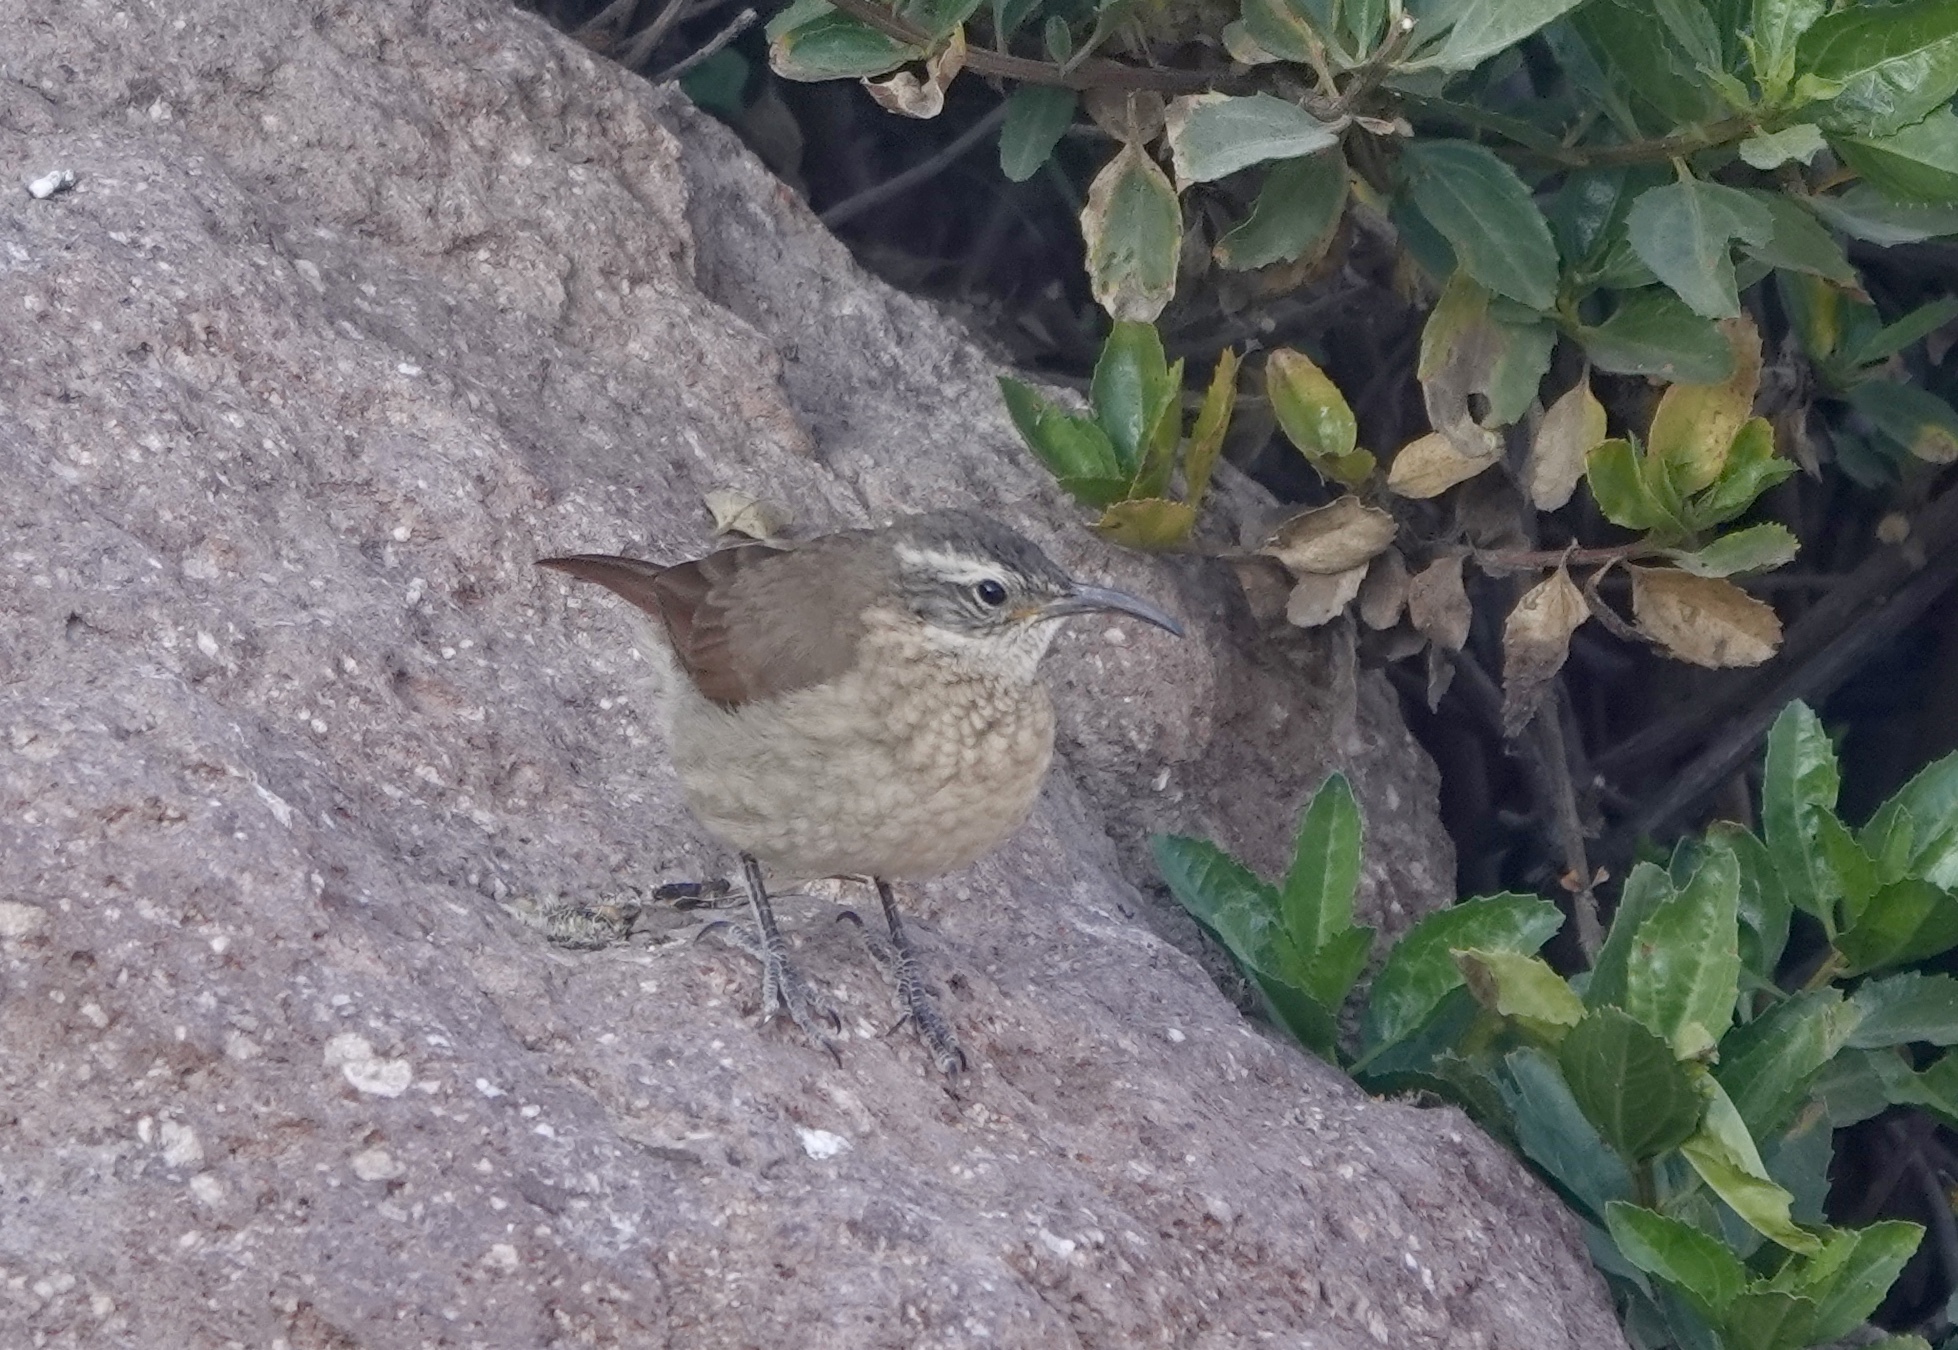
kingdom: Animalia
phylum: Chordata
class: Aves
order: Passeriformes
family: Furnariidae
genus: Upucerthia
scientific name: Upucerthia albigula
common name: White-throated earthcreeper
